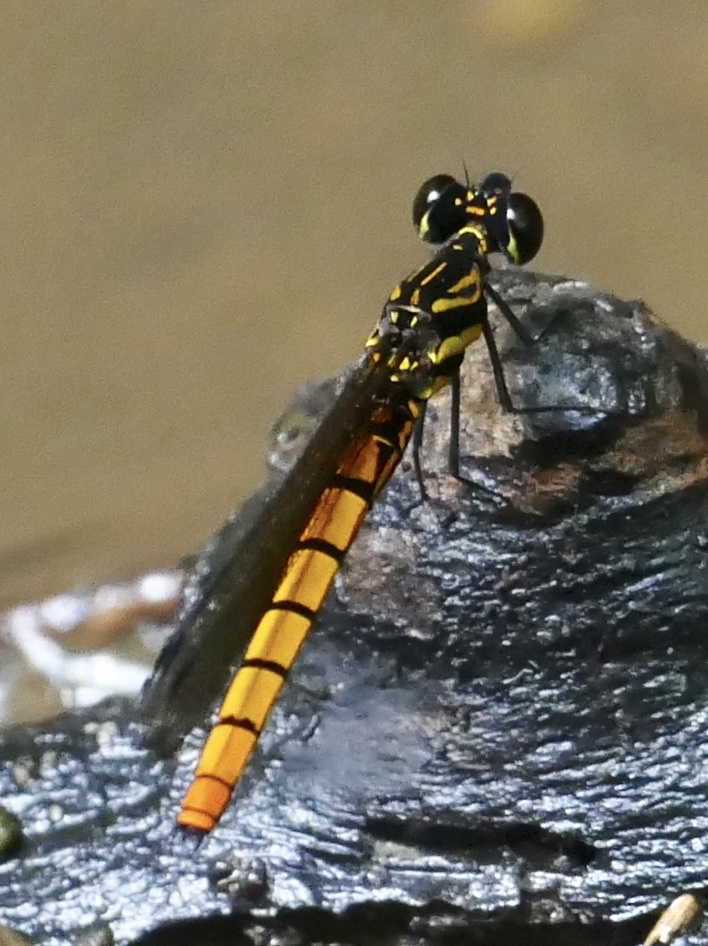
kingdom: Animalia
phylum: Arthropoda
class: Insecta
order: Odonata
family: Chlorocyphidae
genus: Chlorocypha
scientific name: Chlorocypha luminosa
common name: Orange jewel
